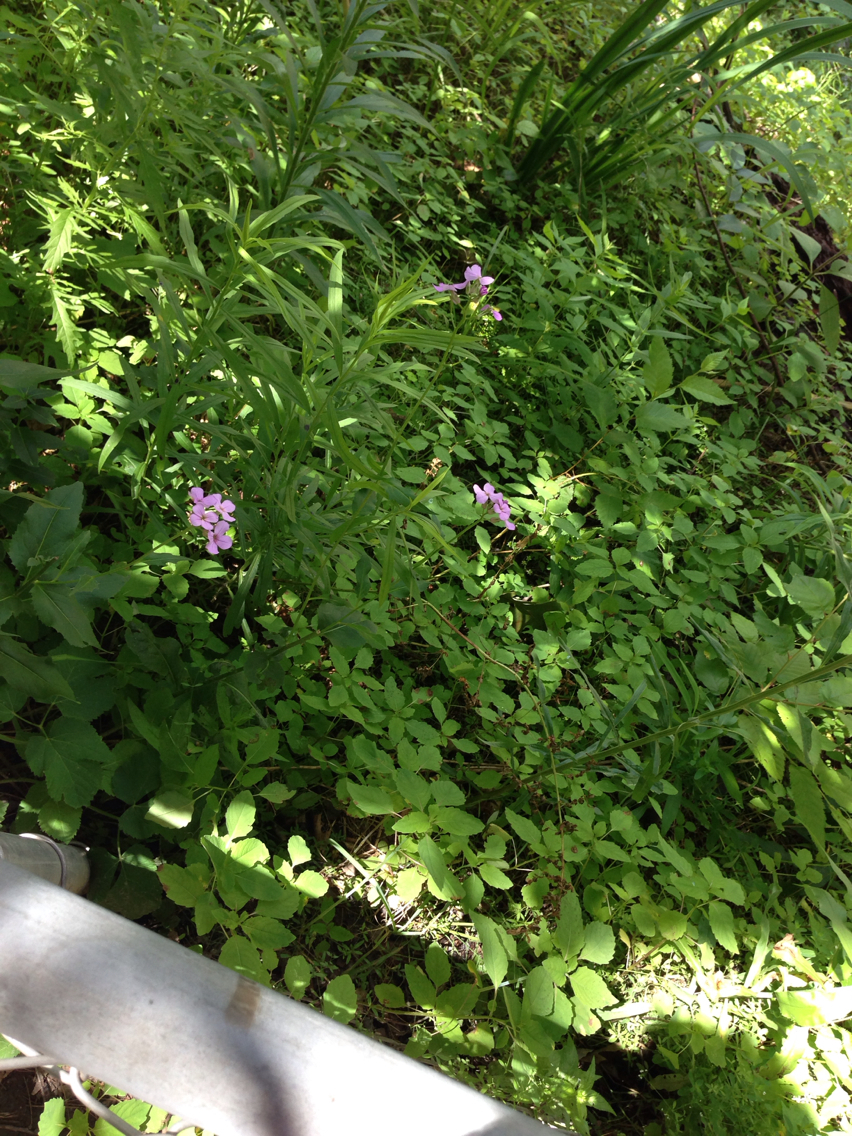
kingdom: Plantae
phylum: Tracheophyta
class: Magnoliopsida
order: Brassicales
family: Brassicaceae
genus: Hesperis
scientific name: Hesperis matronalis
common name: Dame's-violet
